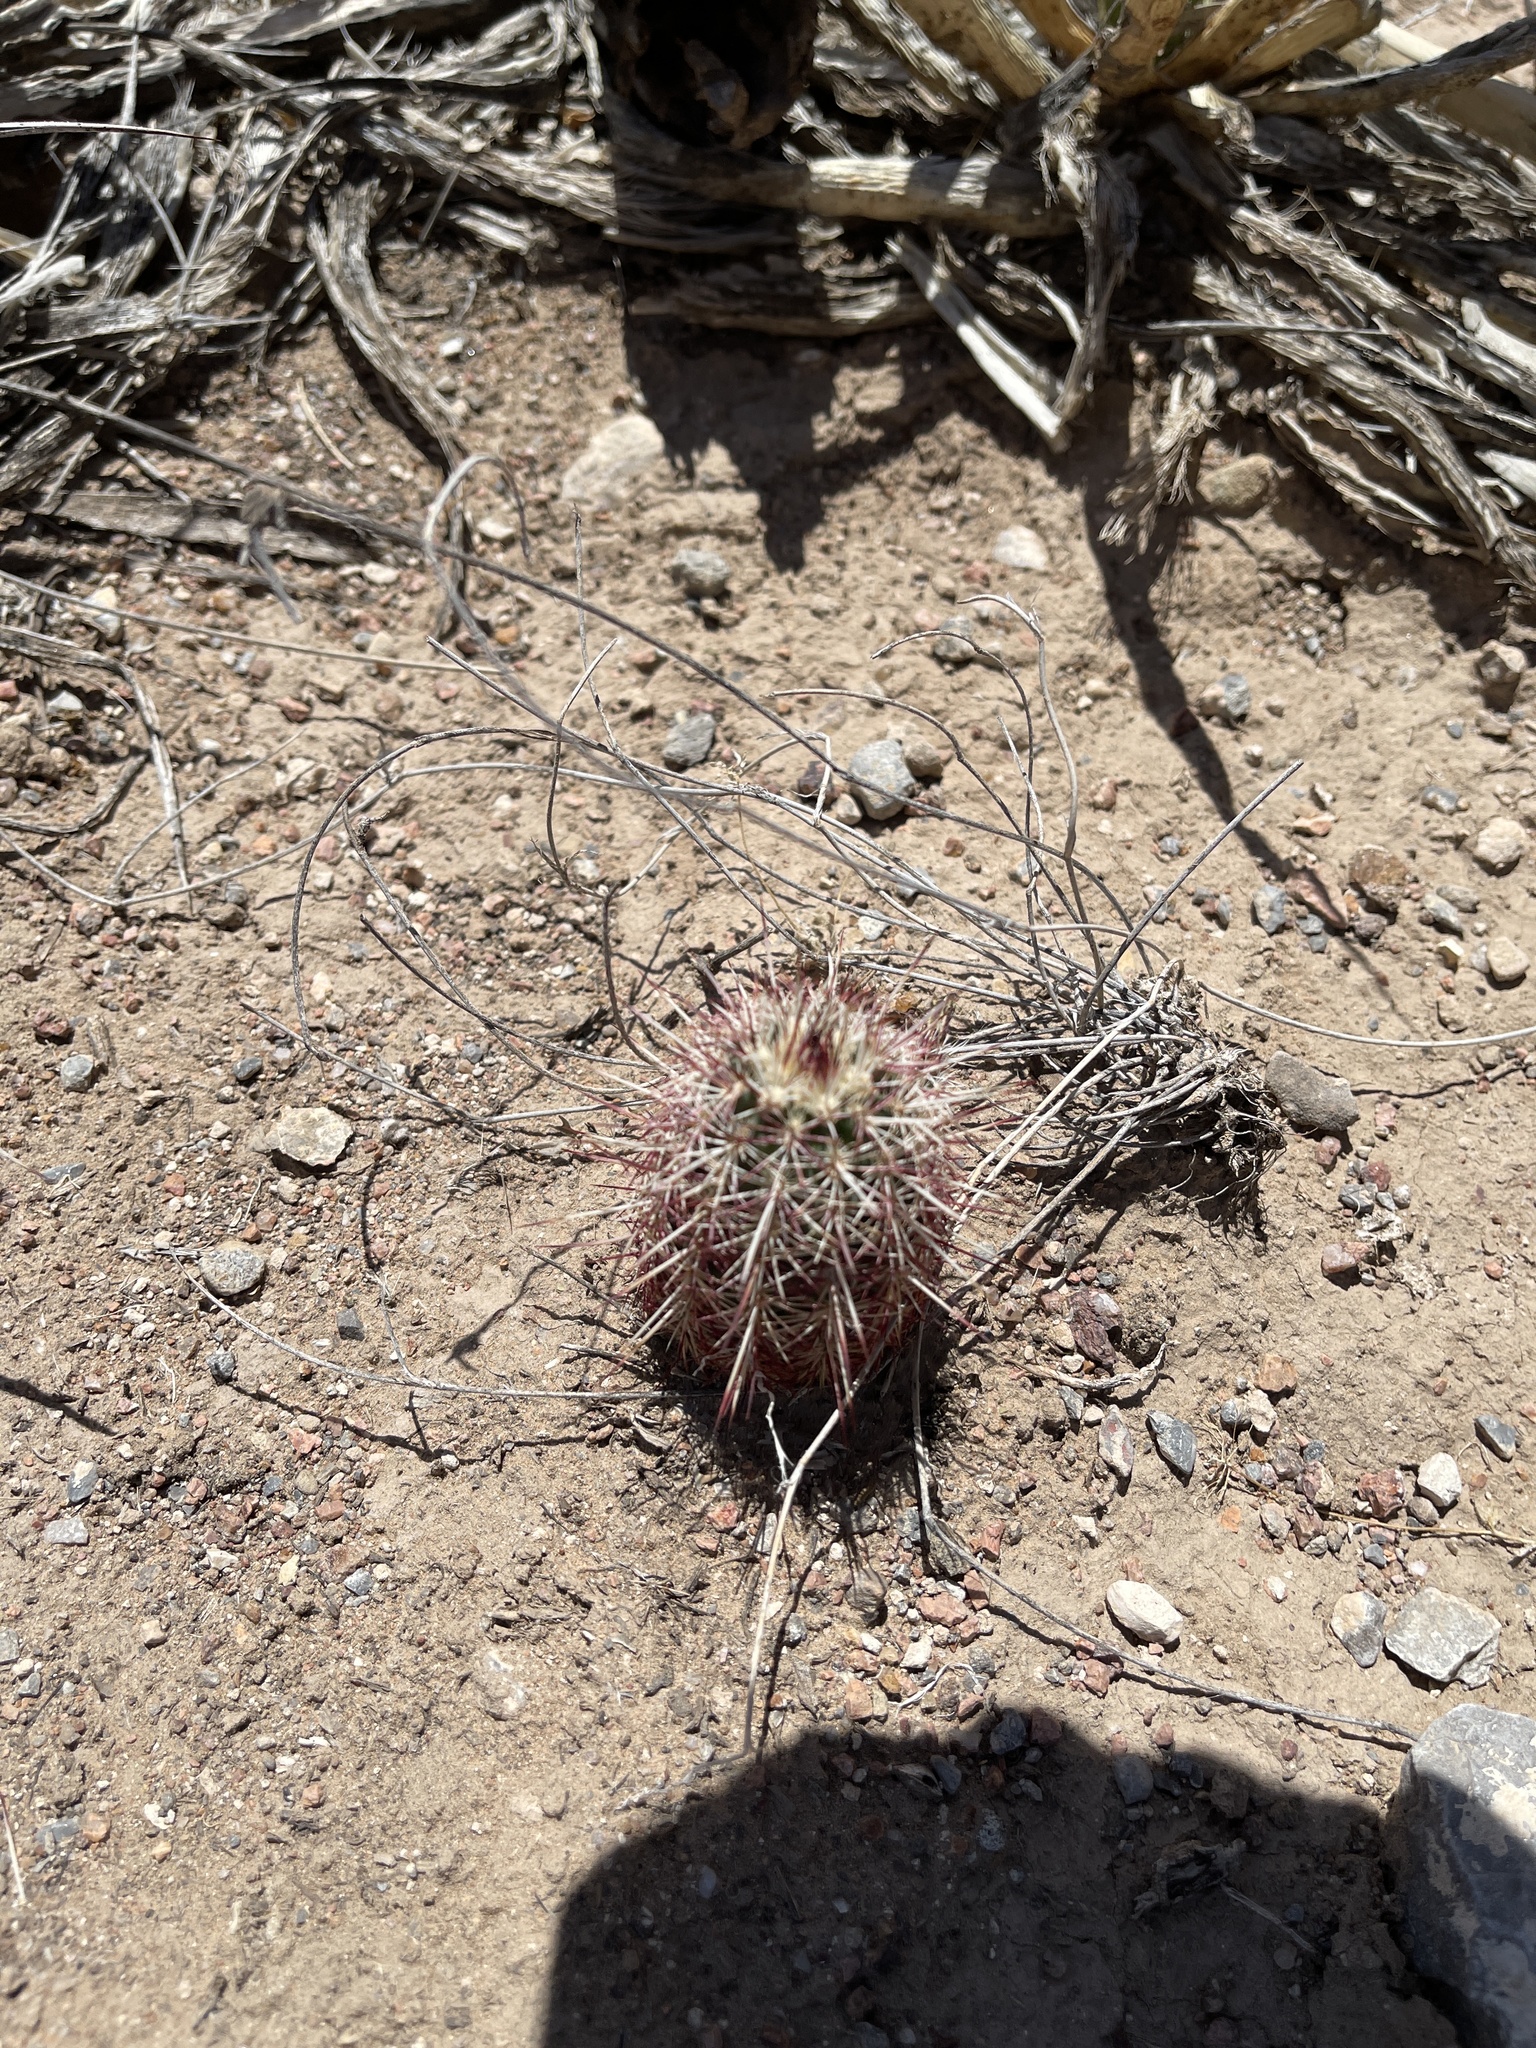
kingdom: Plantae
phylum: Tracheophyta
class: Magnoliopsida
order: Caryophyllales
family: Cactaceae
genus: Echinocereus
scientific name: Echinocereus viridiflorus
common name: Nylon hedgehog cactus
